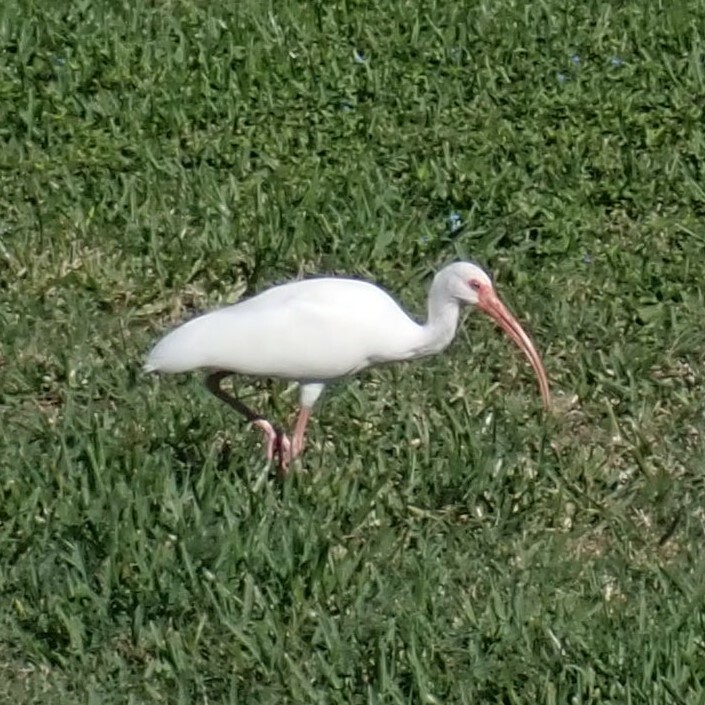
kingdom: Animalia
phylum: Chordata
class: Aves
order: Pelecaniformes
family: Threskiornithidae
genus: Eudocimus
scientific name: Eudocimus albus
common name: White ibis
